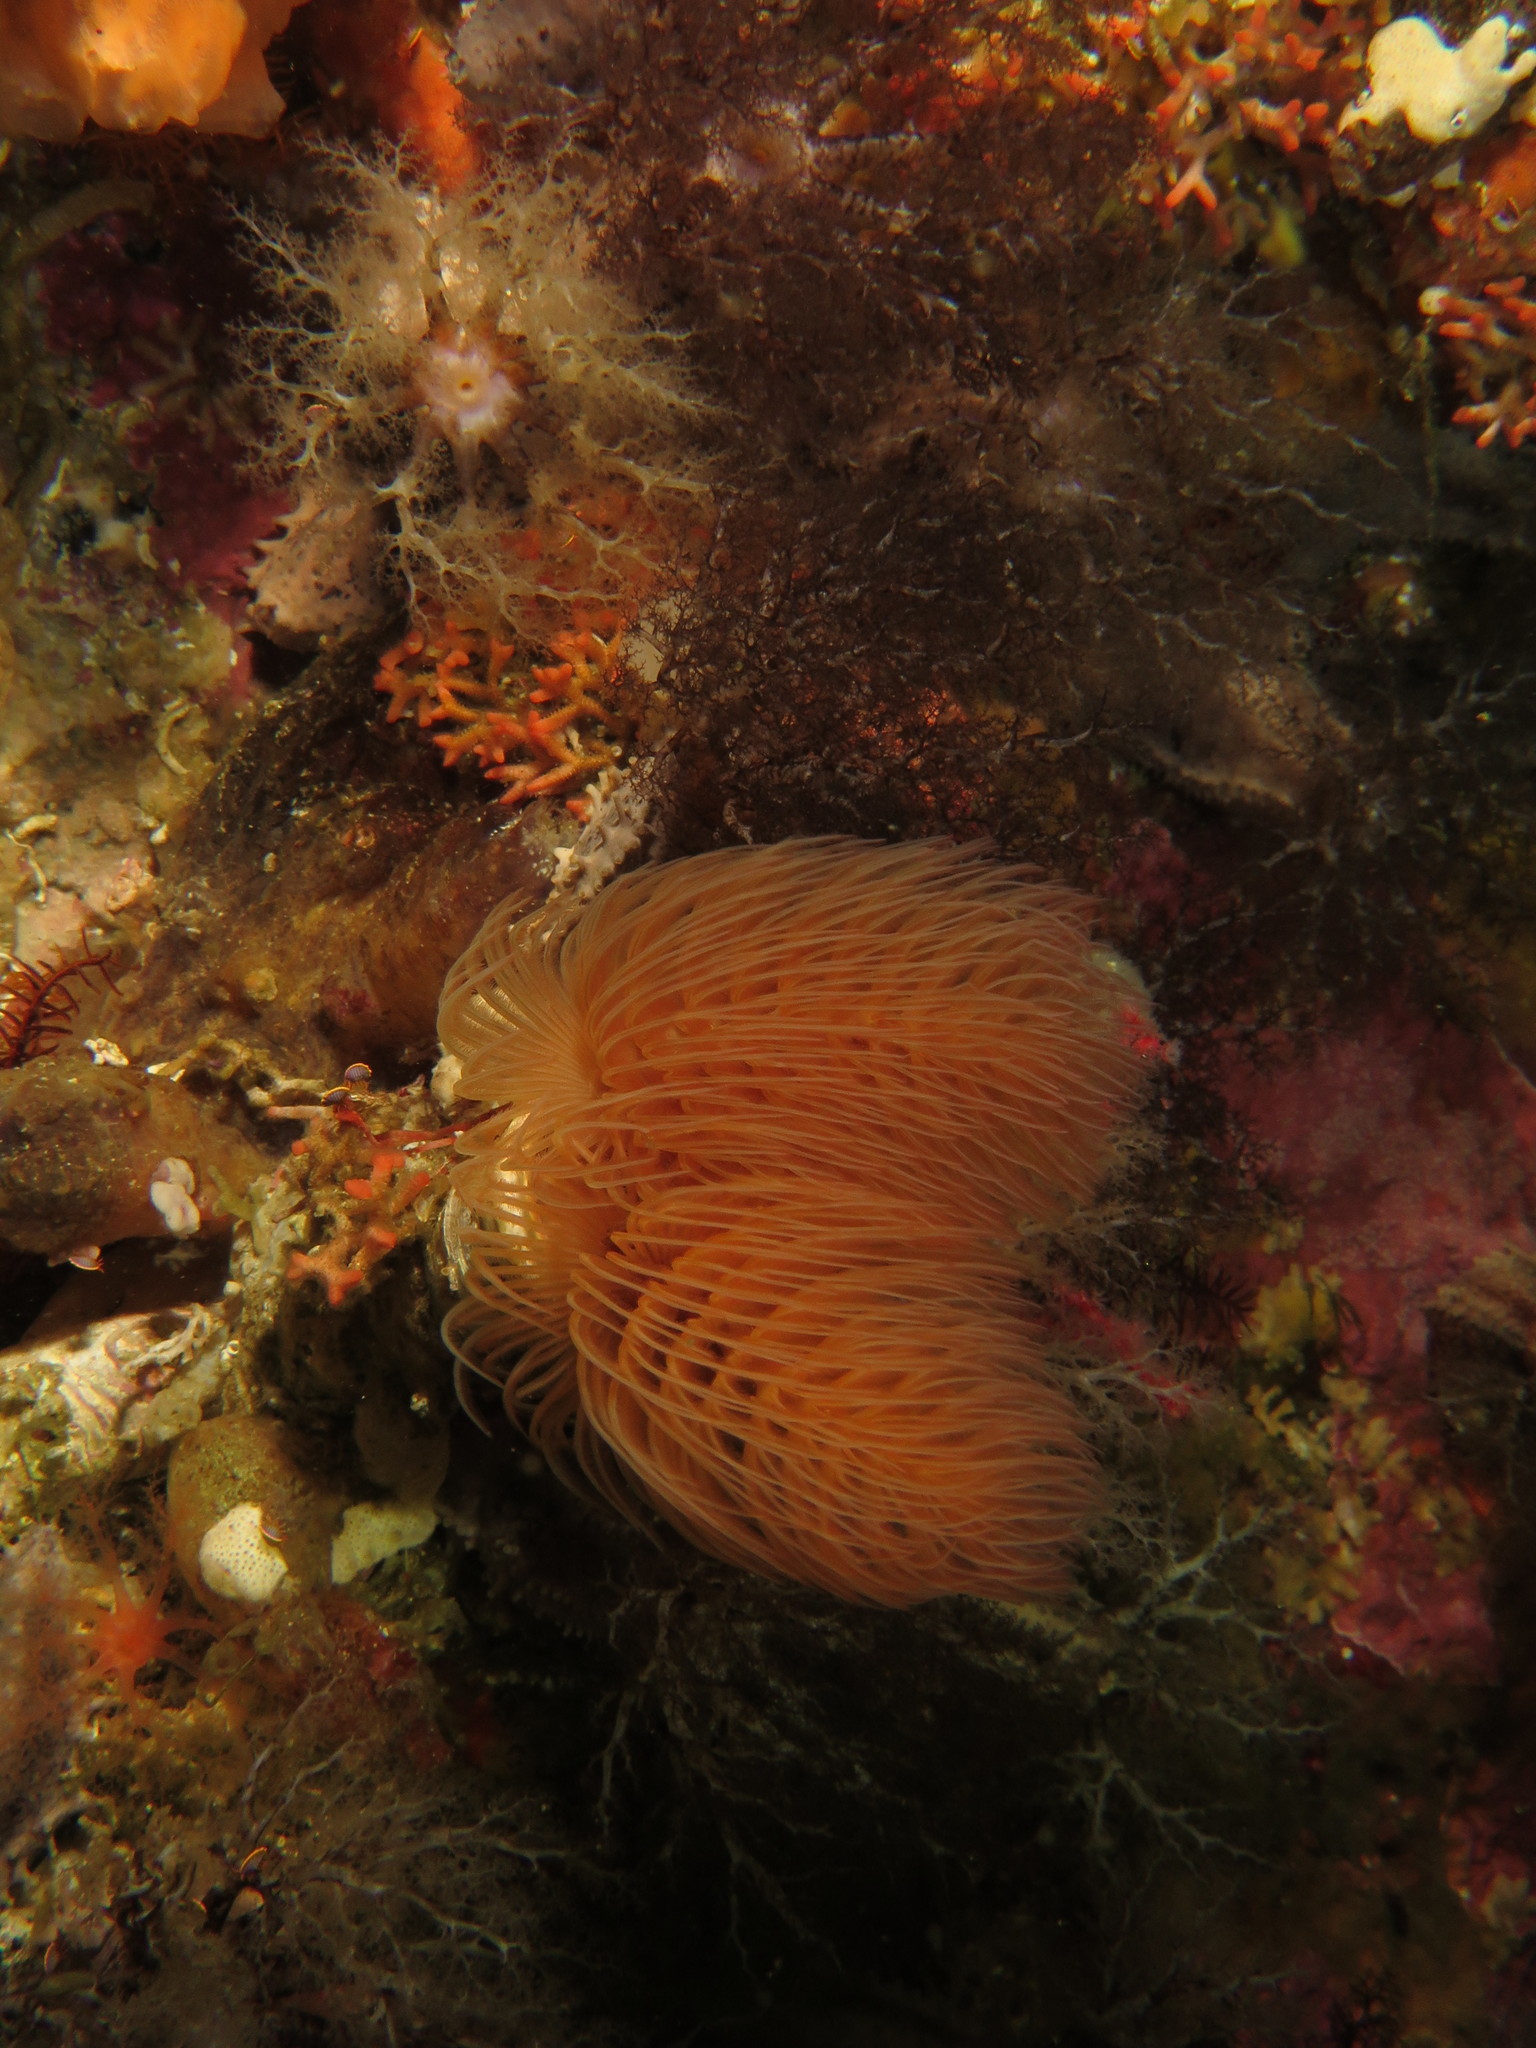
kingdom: Animalia
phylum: Annelida
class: Polychaeta
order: Sabellida
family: Serpulidae
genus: Protula
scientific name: Protula bispiralis
